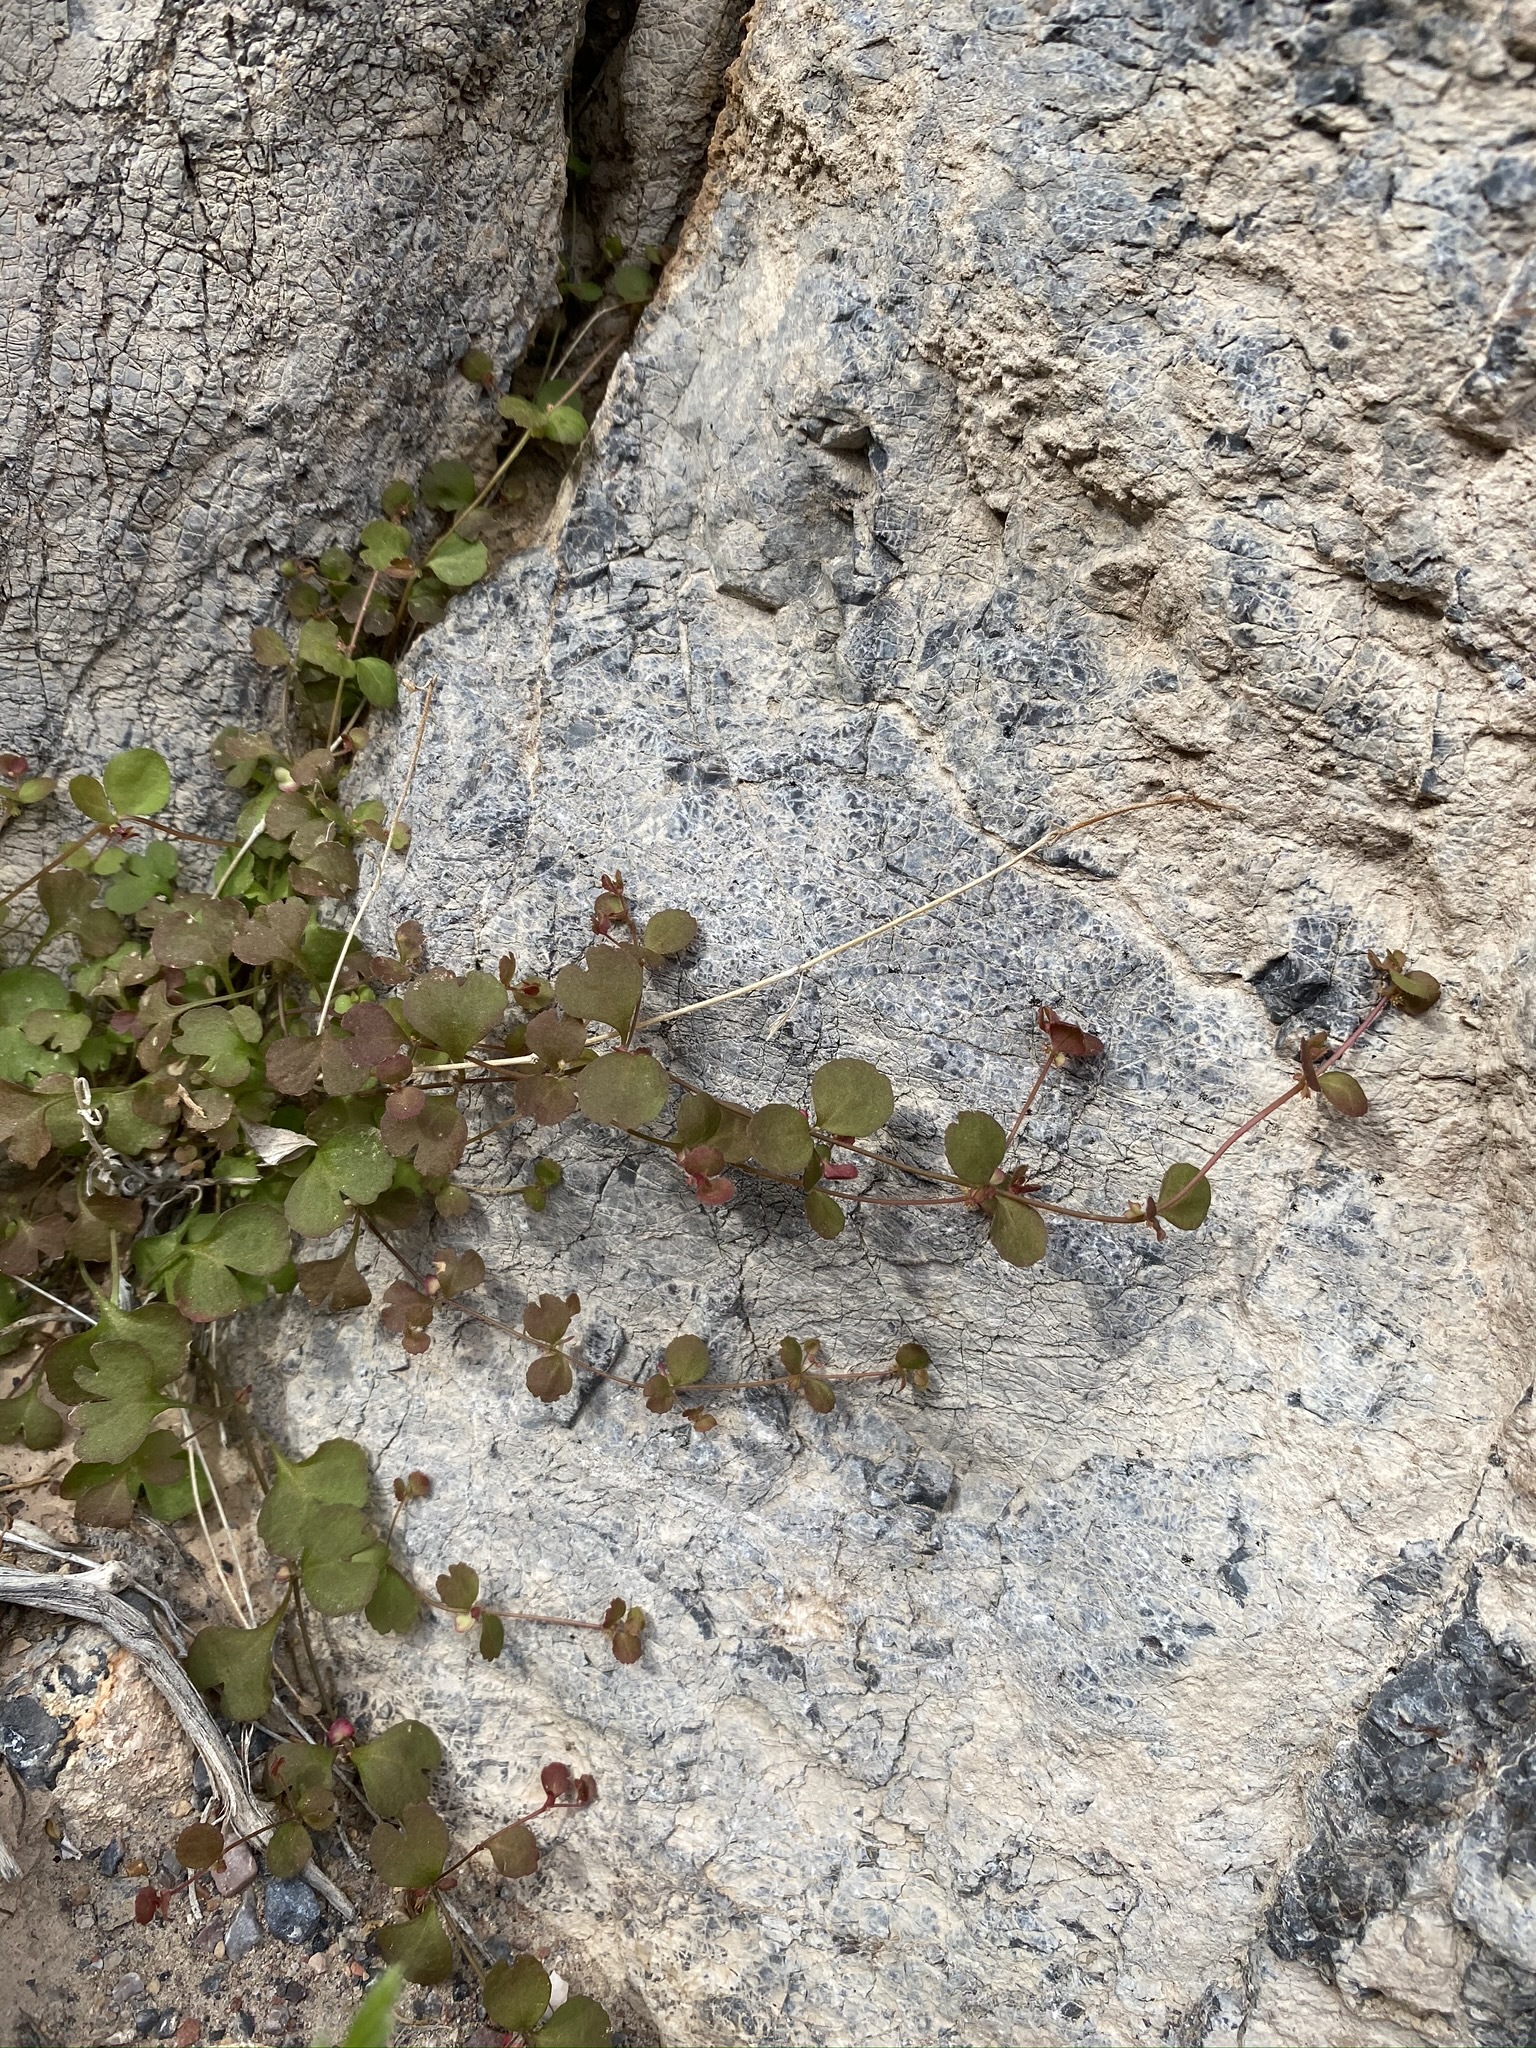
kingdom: Plantae
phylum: Tracheophyta
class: Magnoliopsida
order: Caryophyllales
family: Polygonaceae
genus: Pterostegia
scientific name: Pterostegia drymarioides
